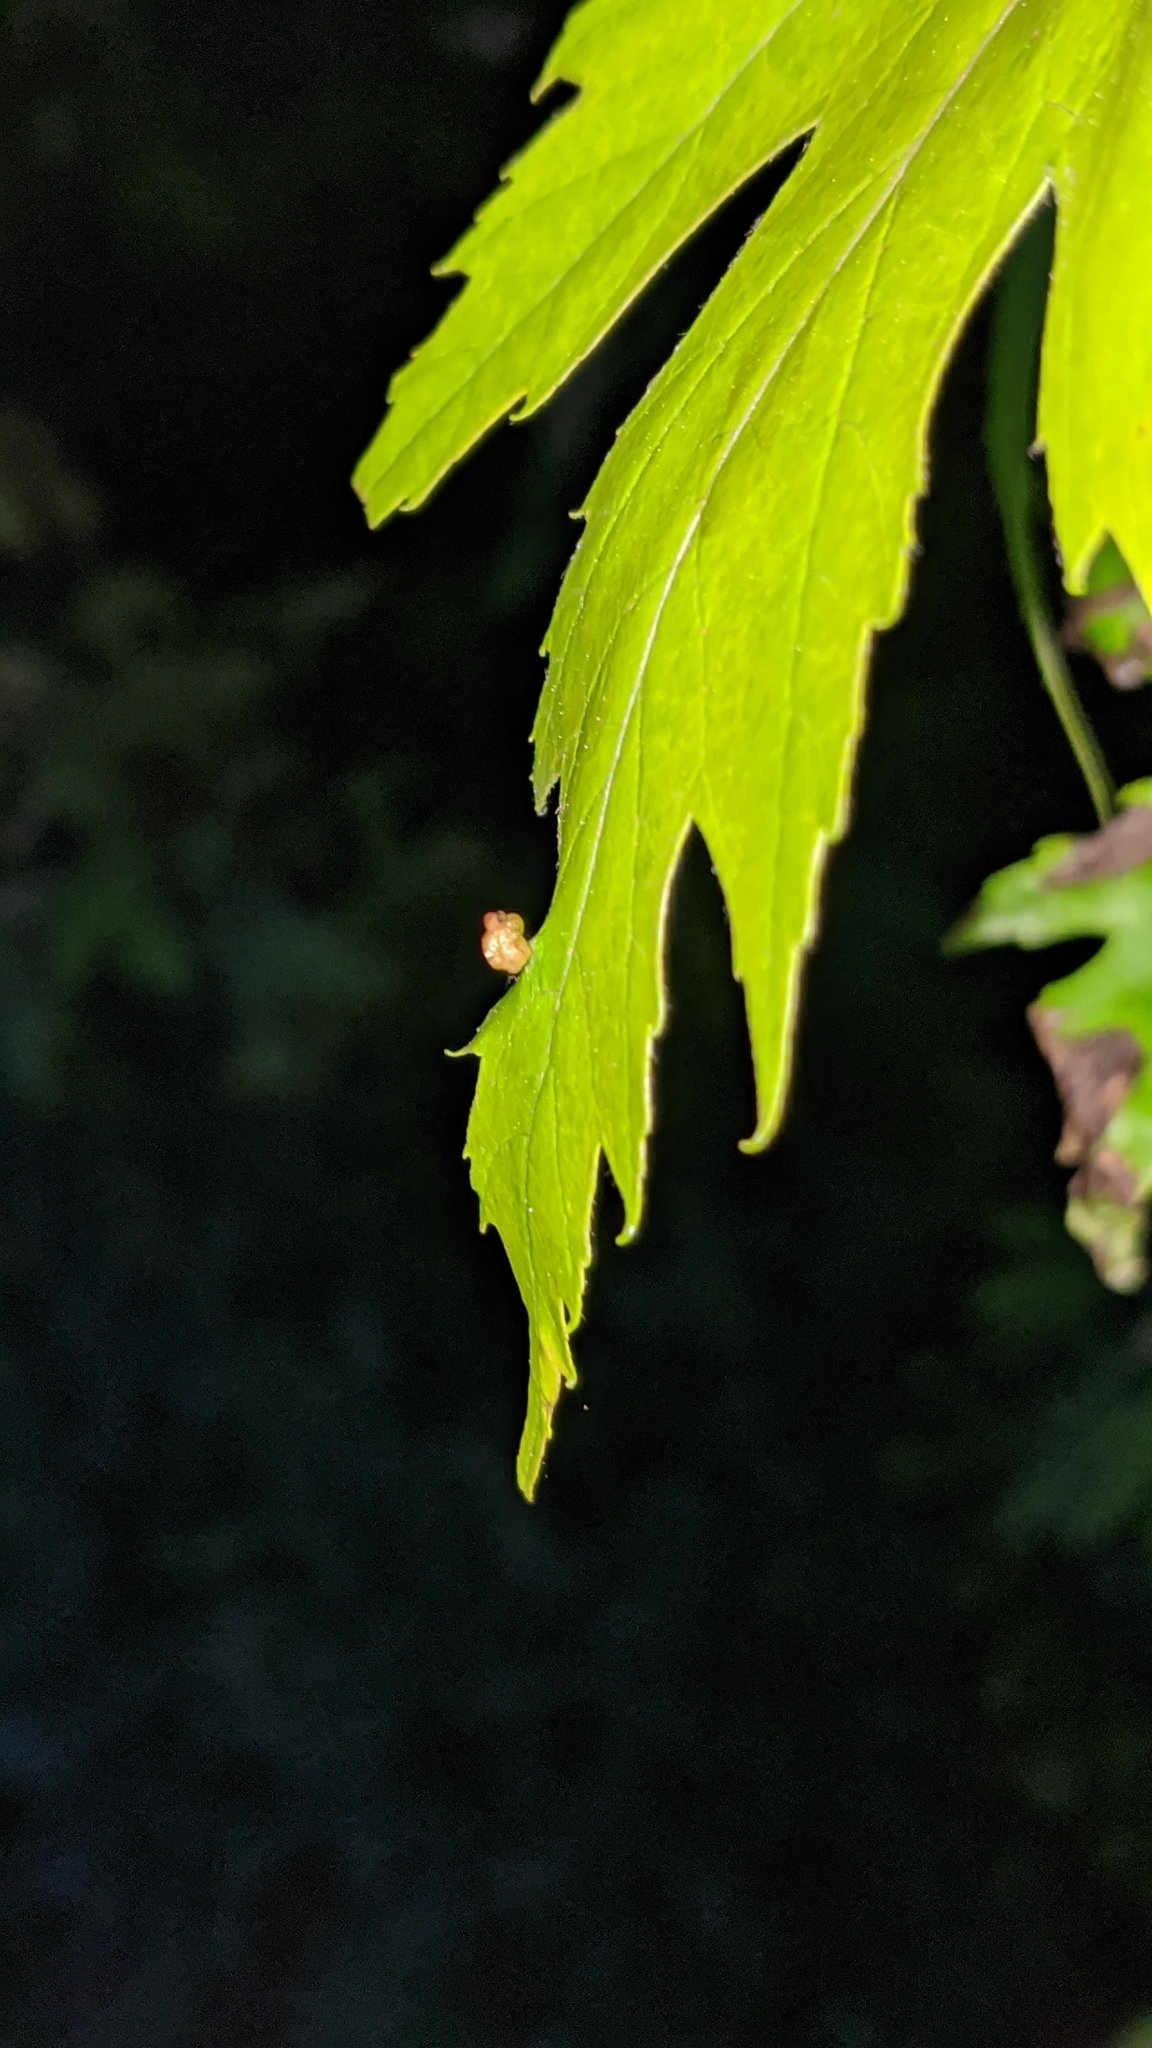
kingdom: Animalia
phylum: Arthropoda
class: Arachnida
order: Trombidiformes
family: Eriophyidae
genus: Vasates
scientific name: Vasates quadripedes
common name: Maple bladder gall mite
